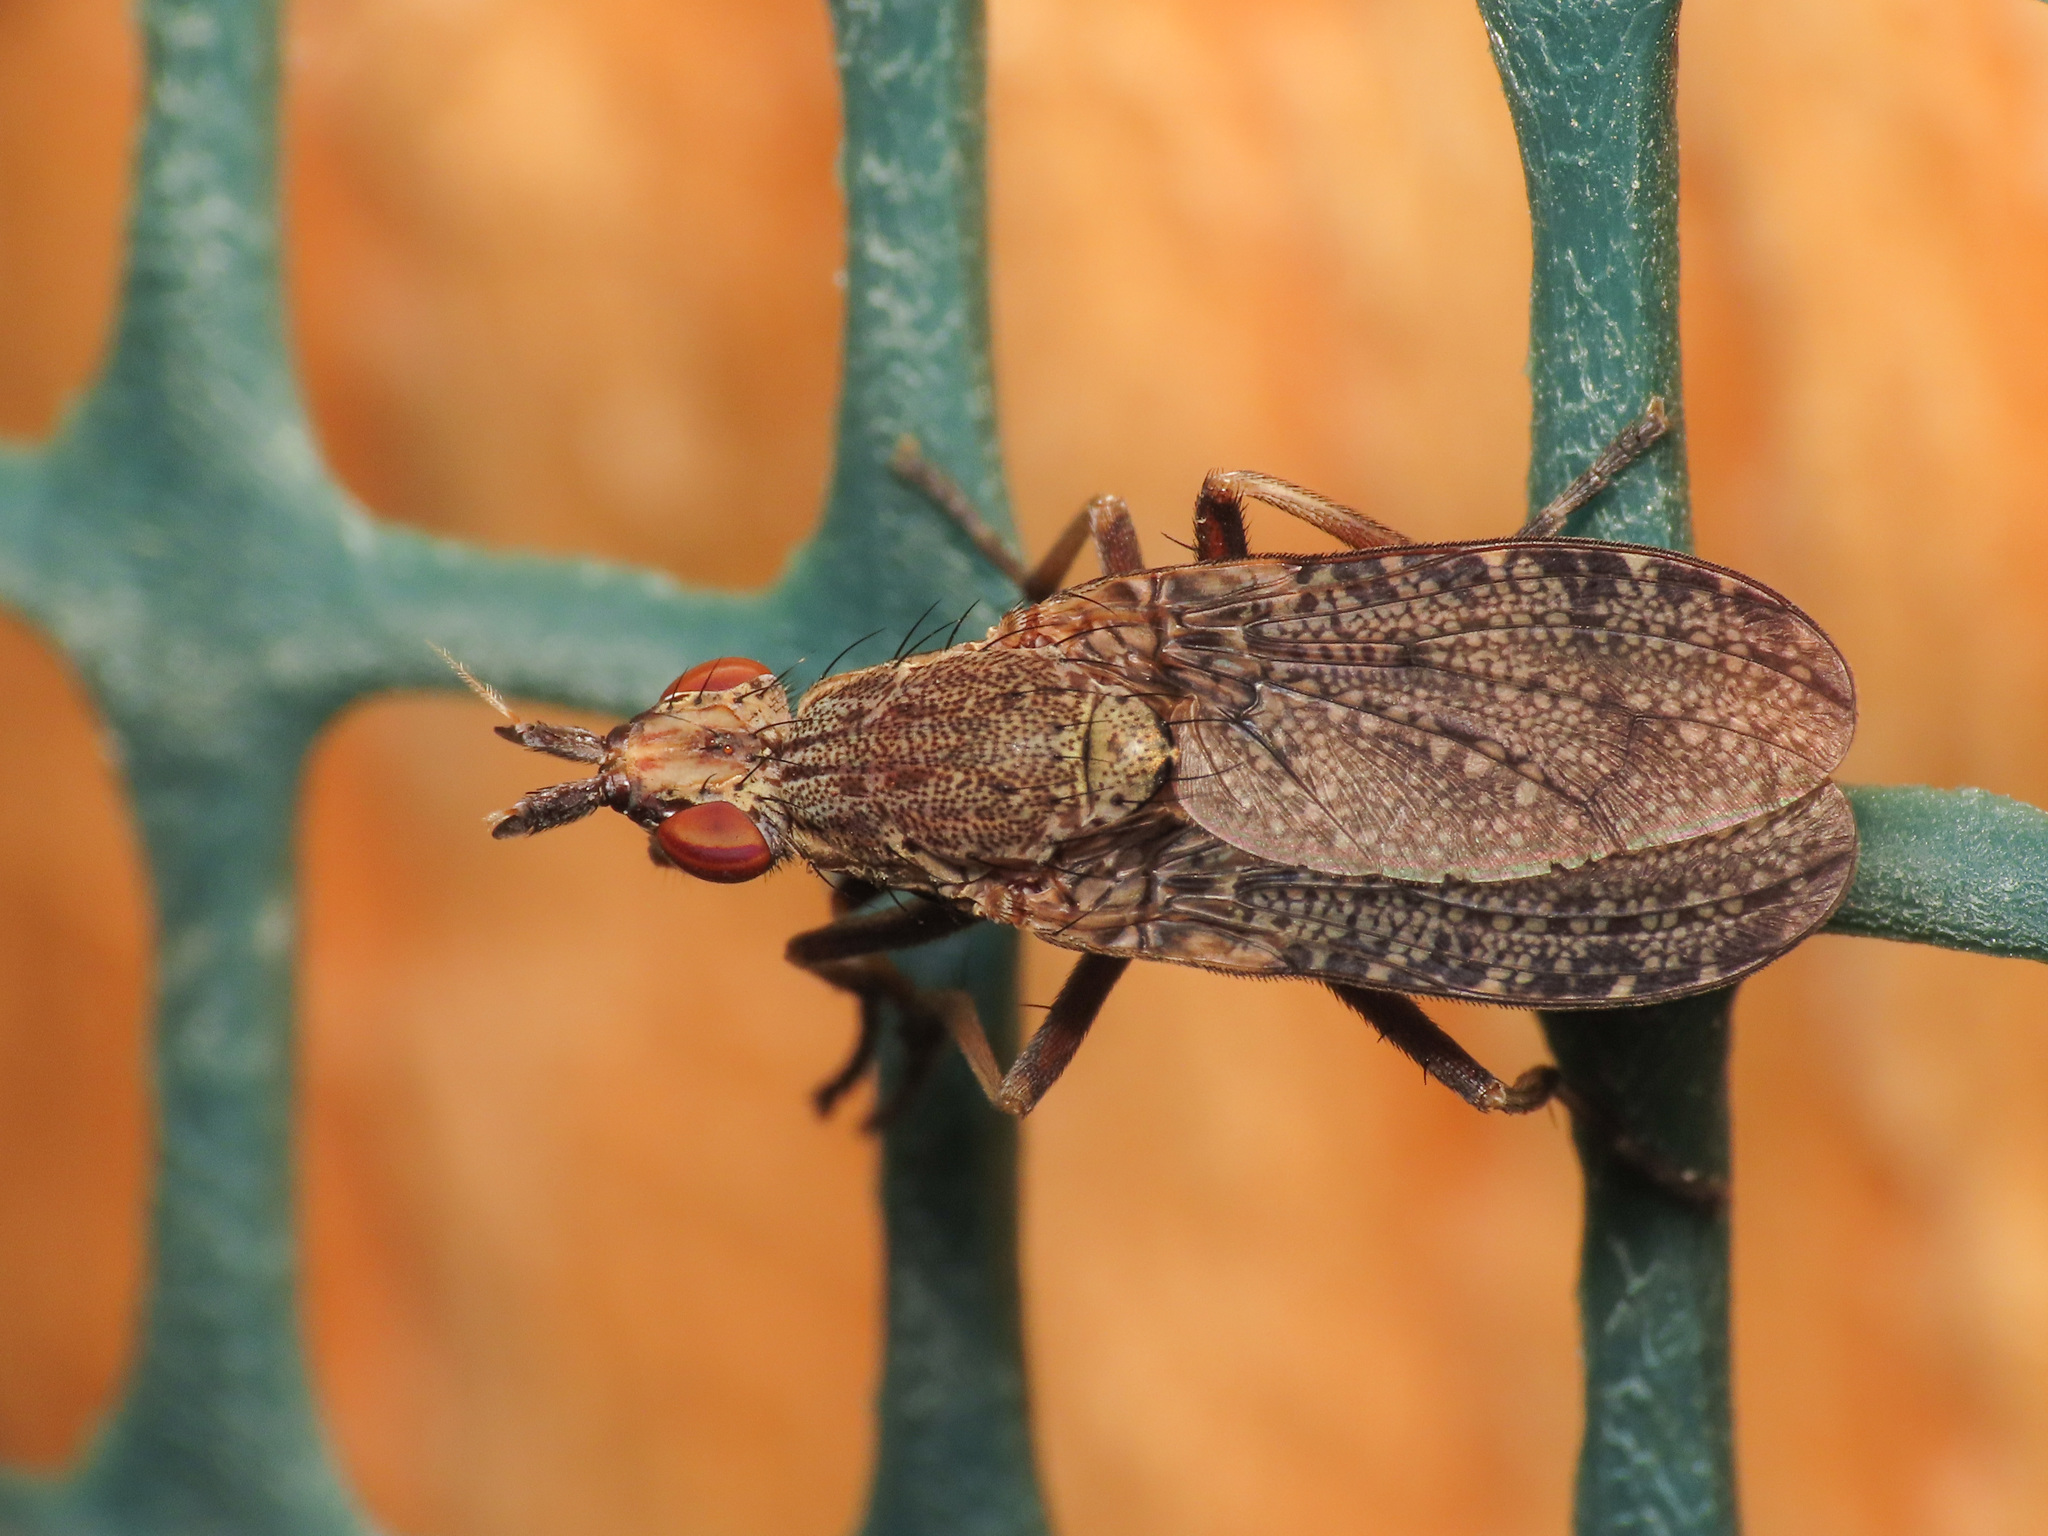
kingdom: Animalia
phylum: Arthropoda
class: Insecta
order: Diptera
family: Sciomyzidae
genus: Euthycera
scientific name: Euthycera cribrata
